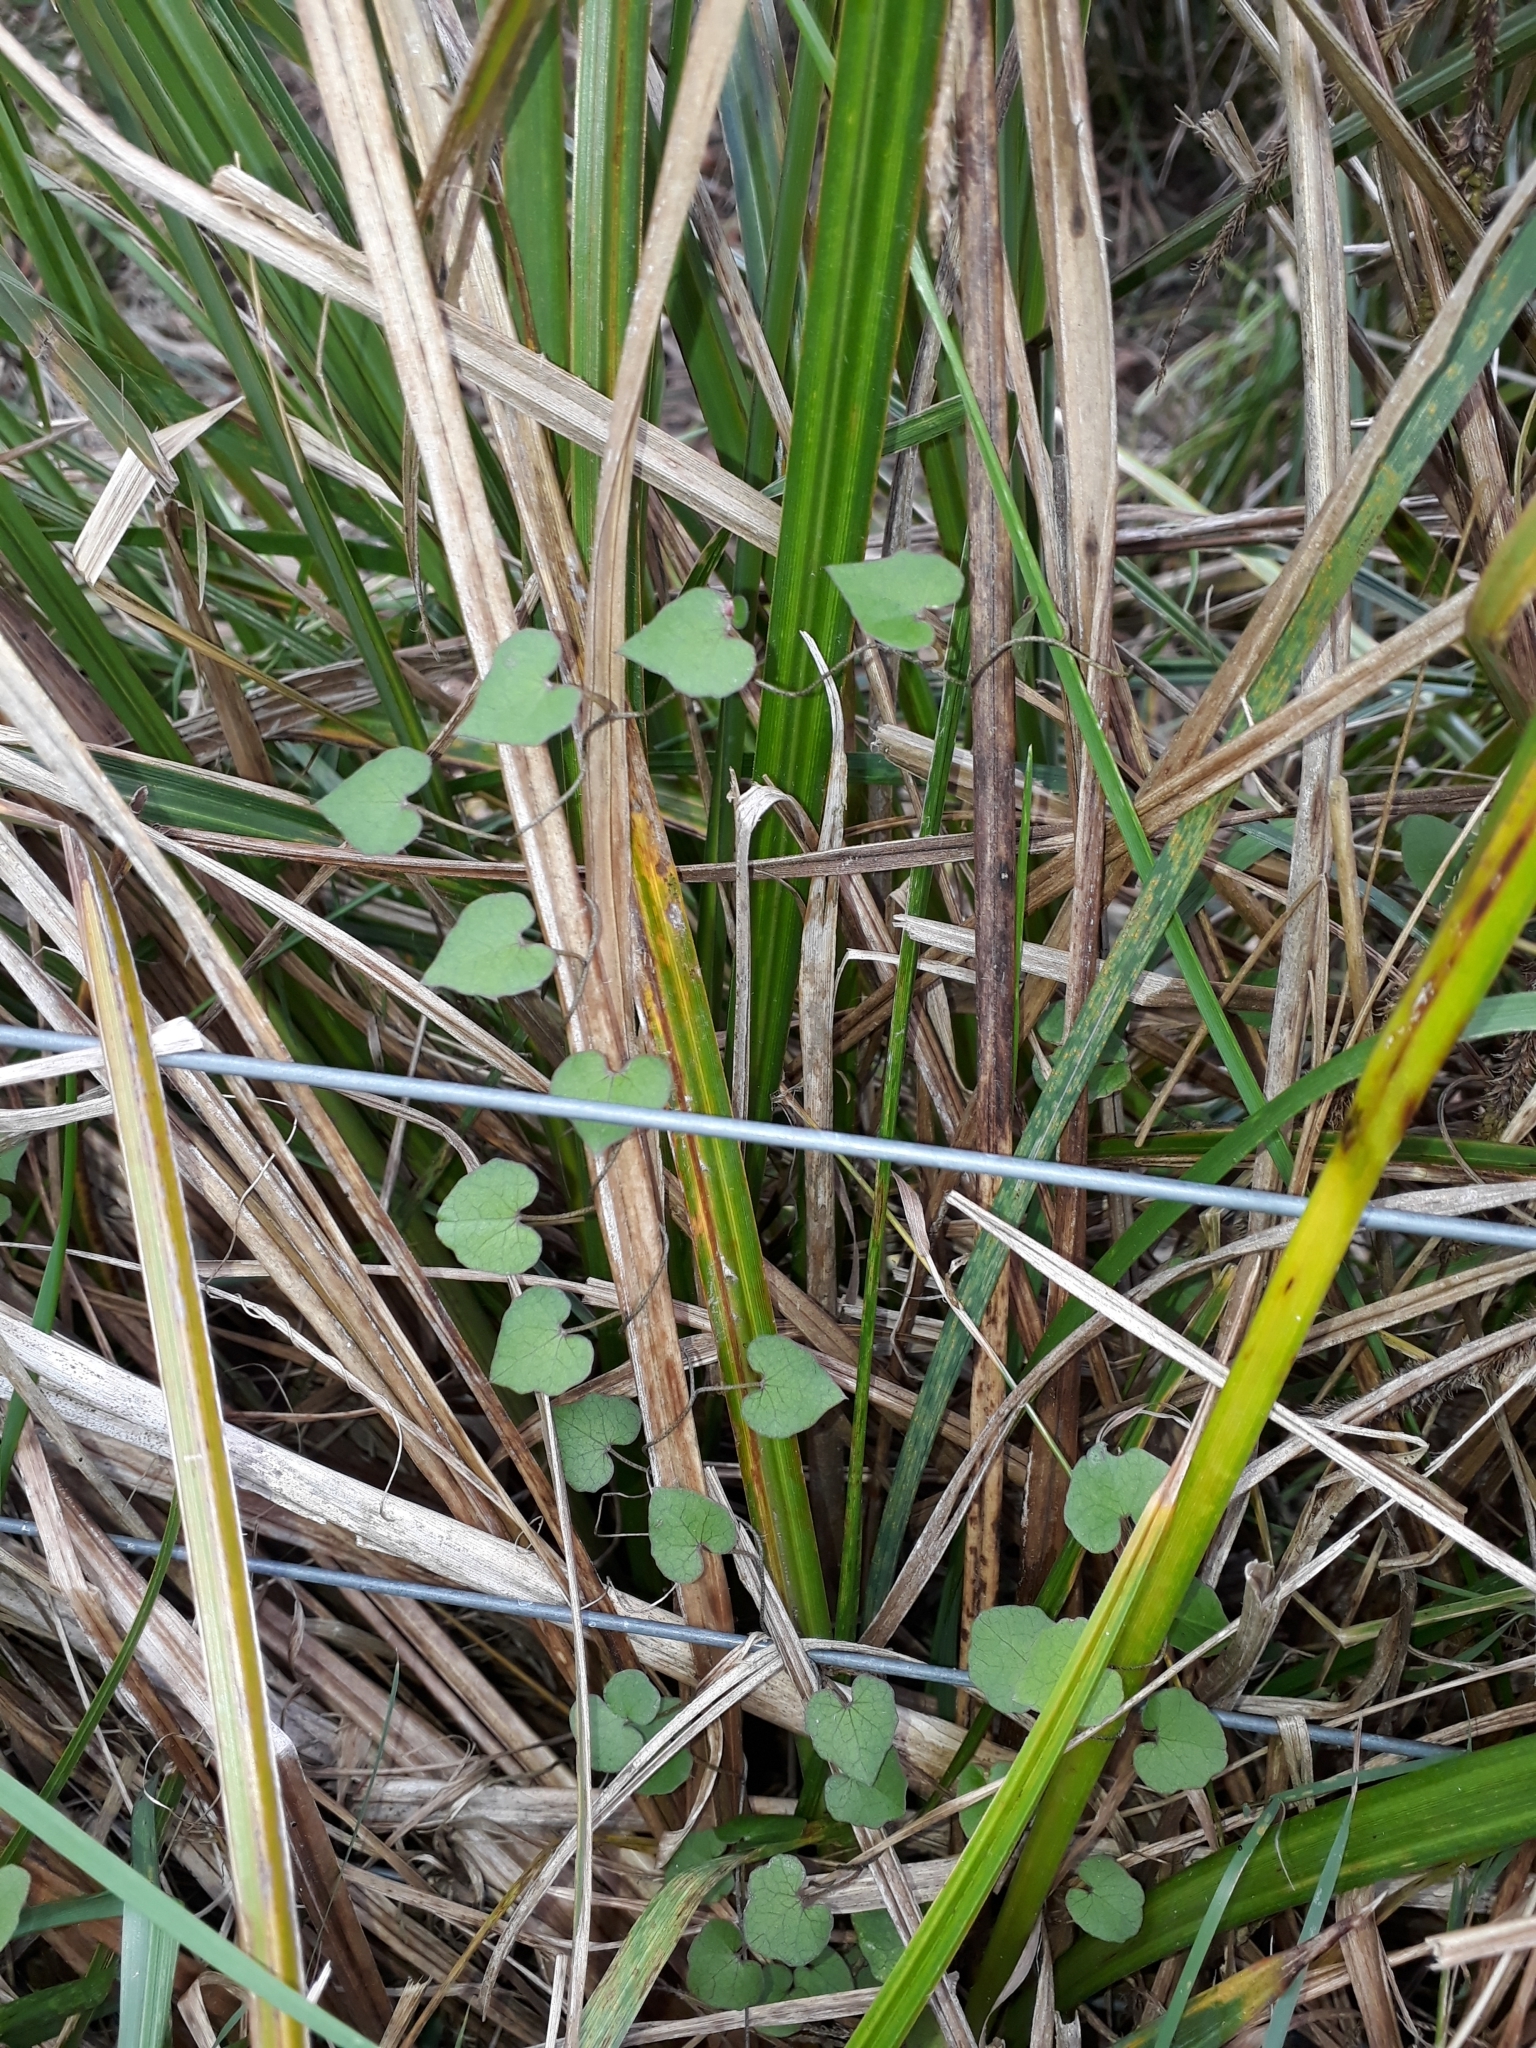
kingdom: Plantae
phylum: Tracheophyta
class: Magnoliopsida
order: Solanales
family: Convolvulaceae
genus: Calystegia
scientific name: Calystegia tuguriorum
